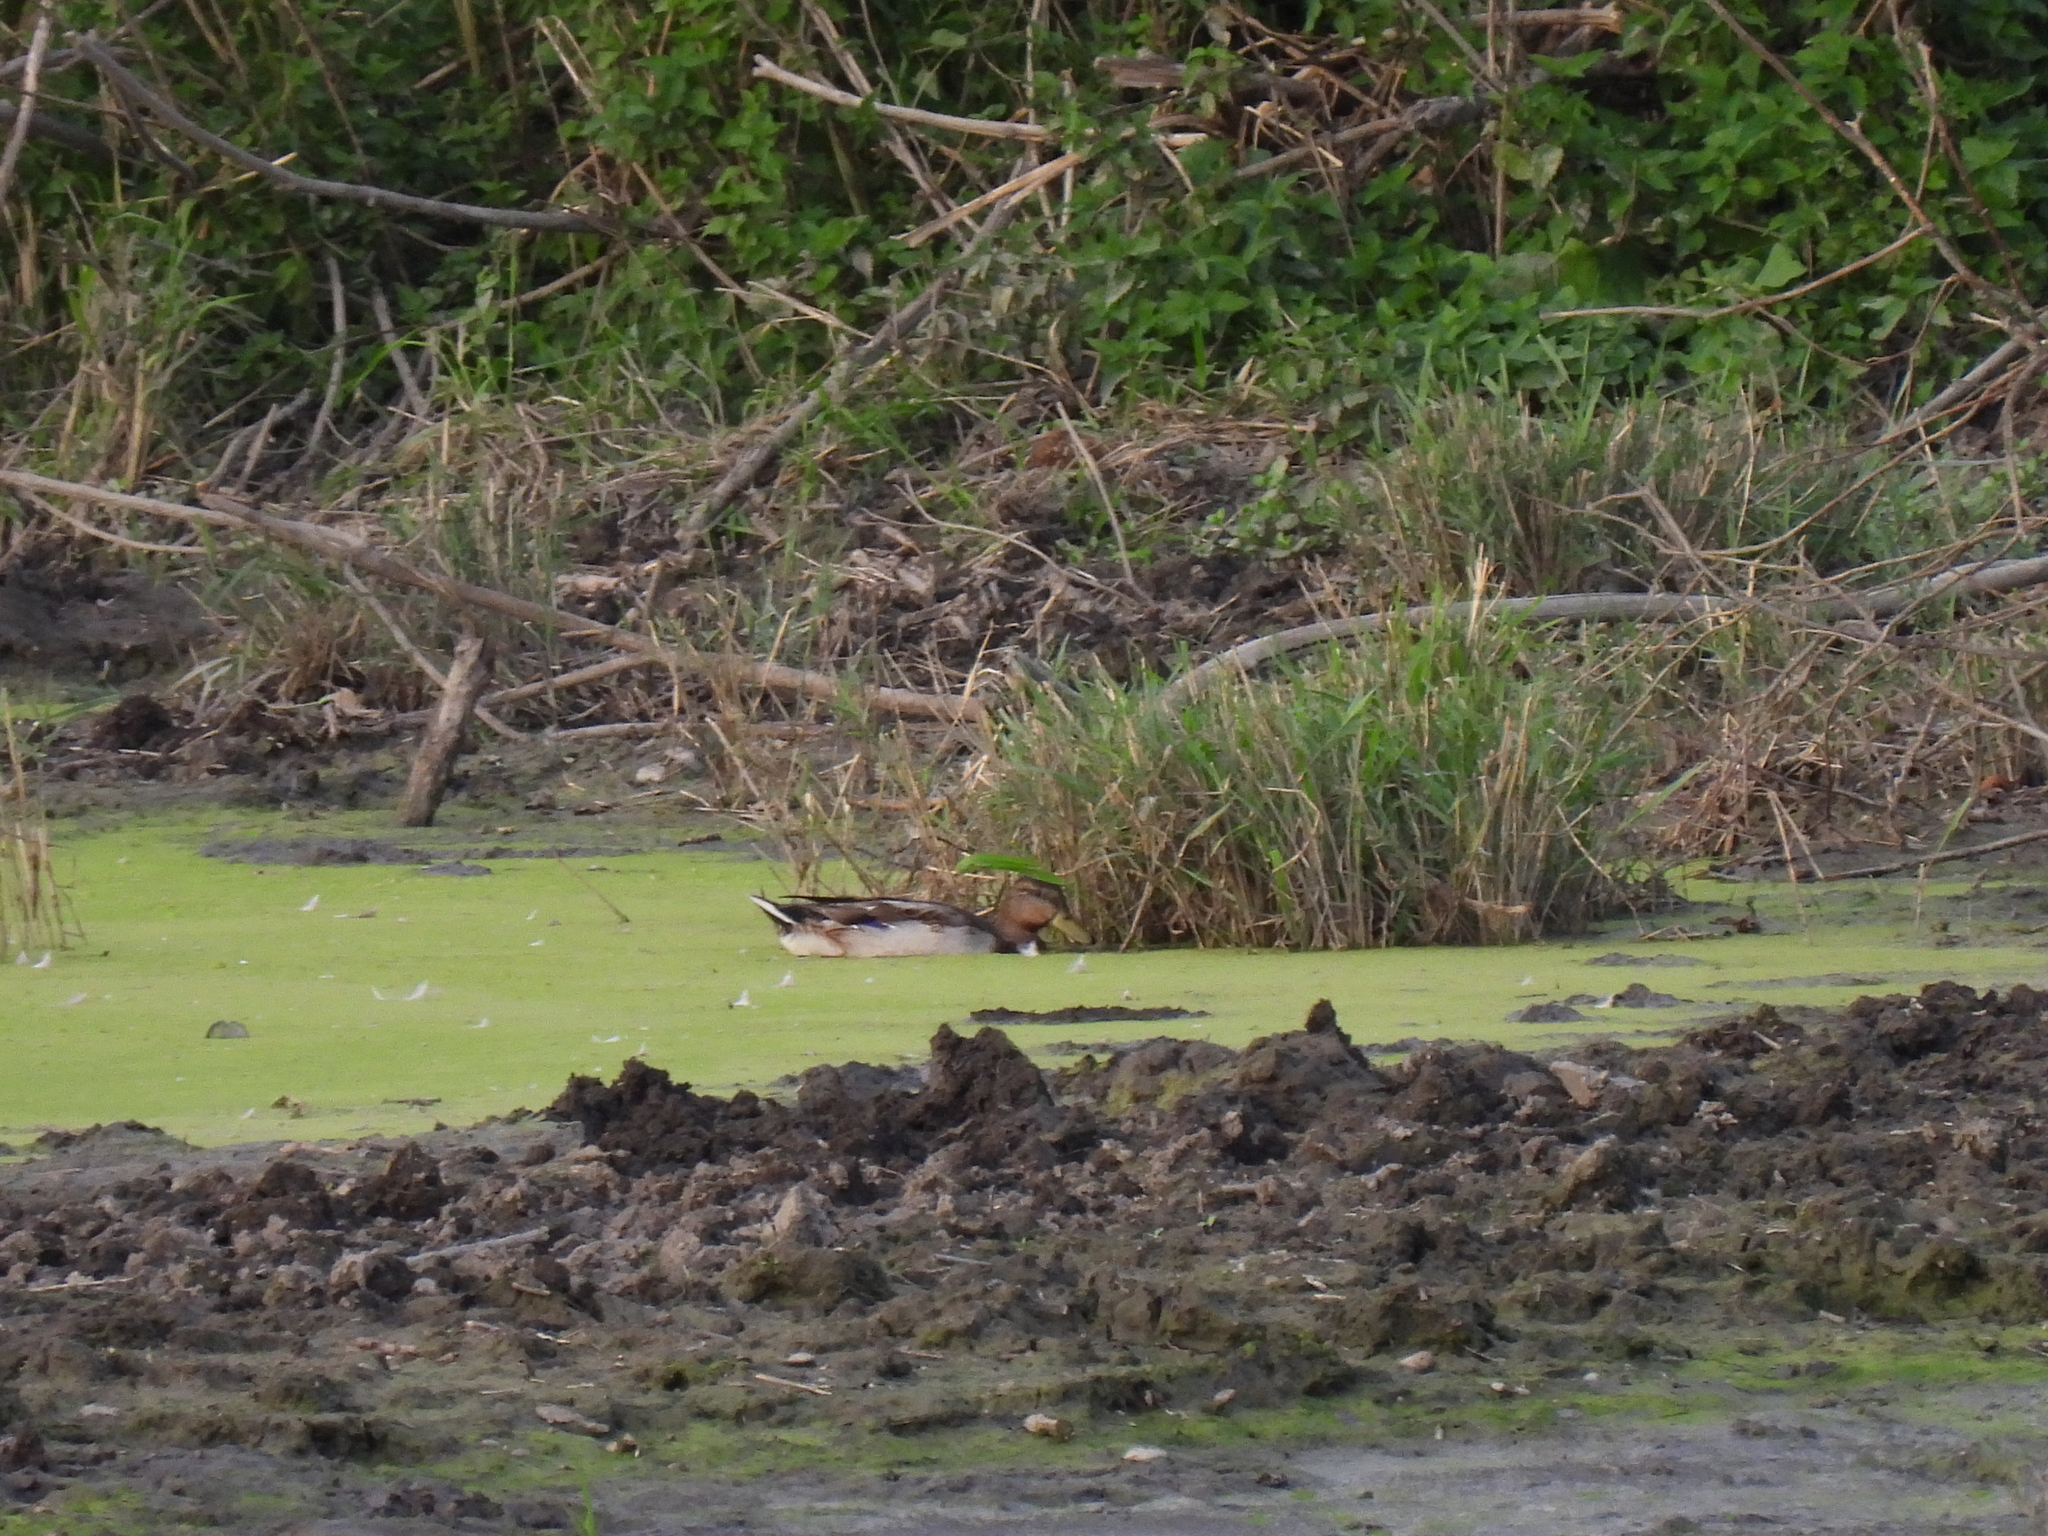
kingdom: Animalia
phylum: Chordata
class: Aves
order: Anseriformes
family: Anatidae
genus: Anas
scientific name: Anas platyrhynchos
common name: Mallard
